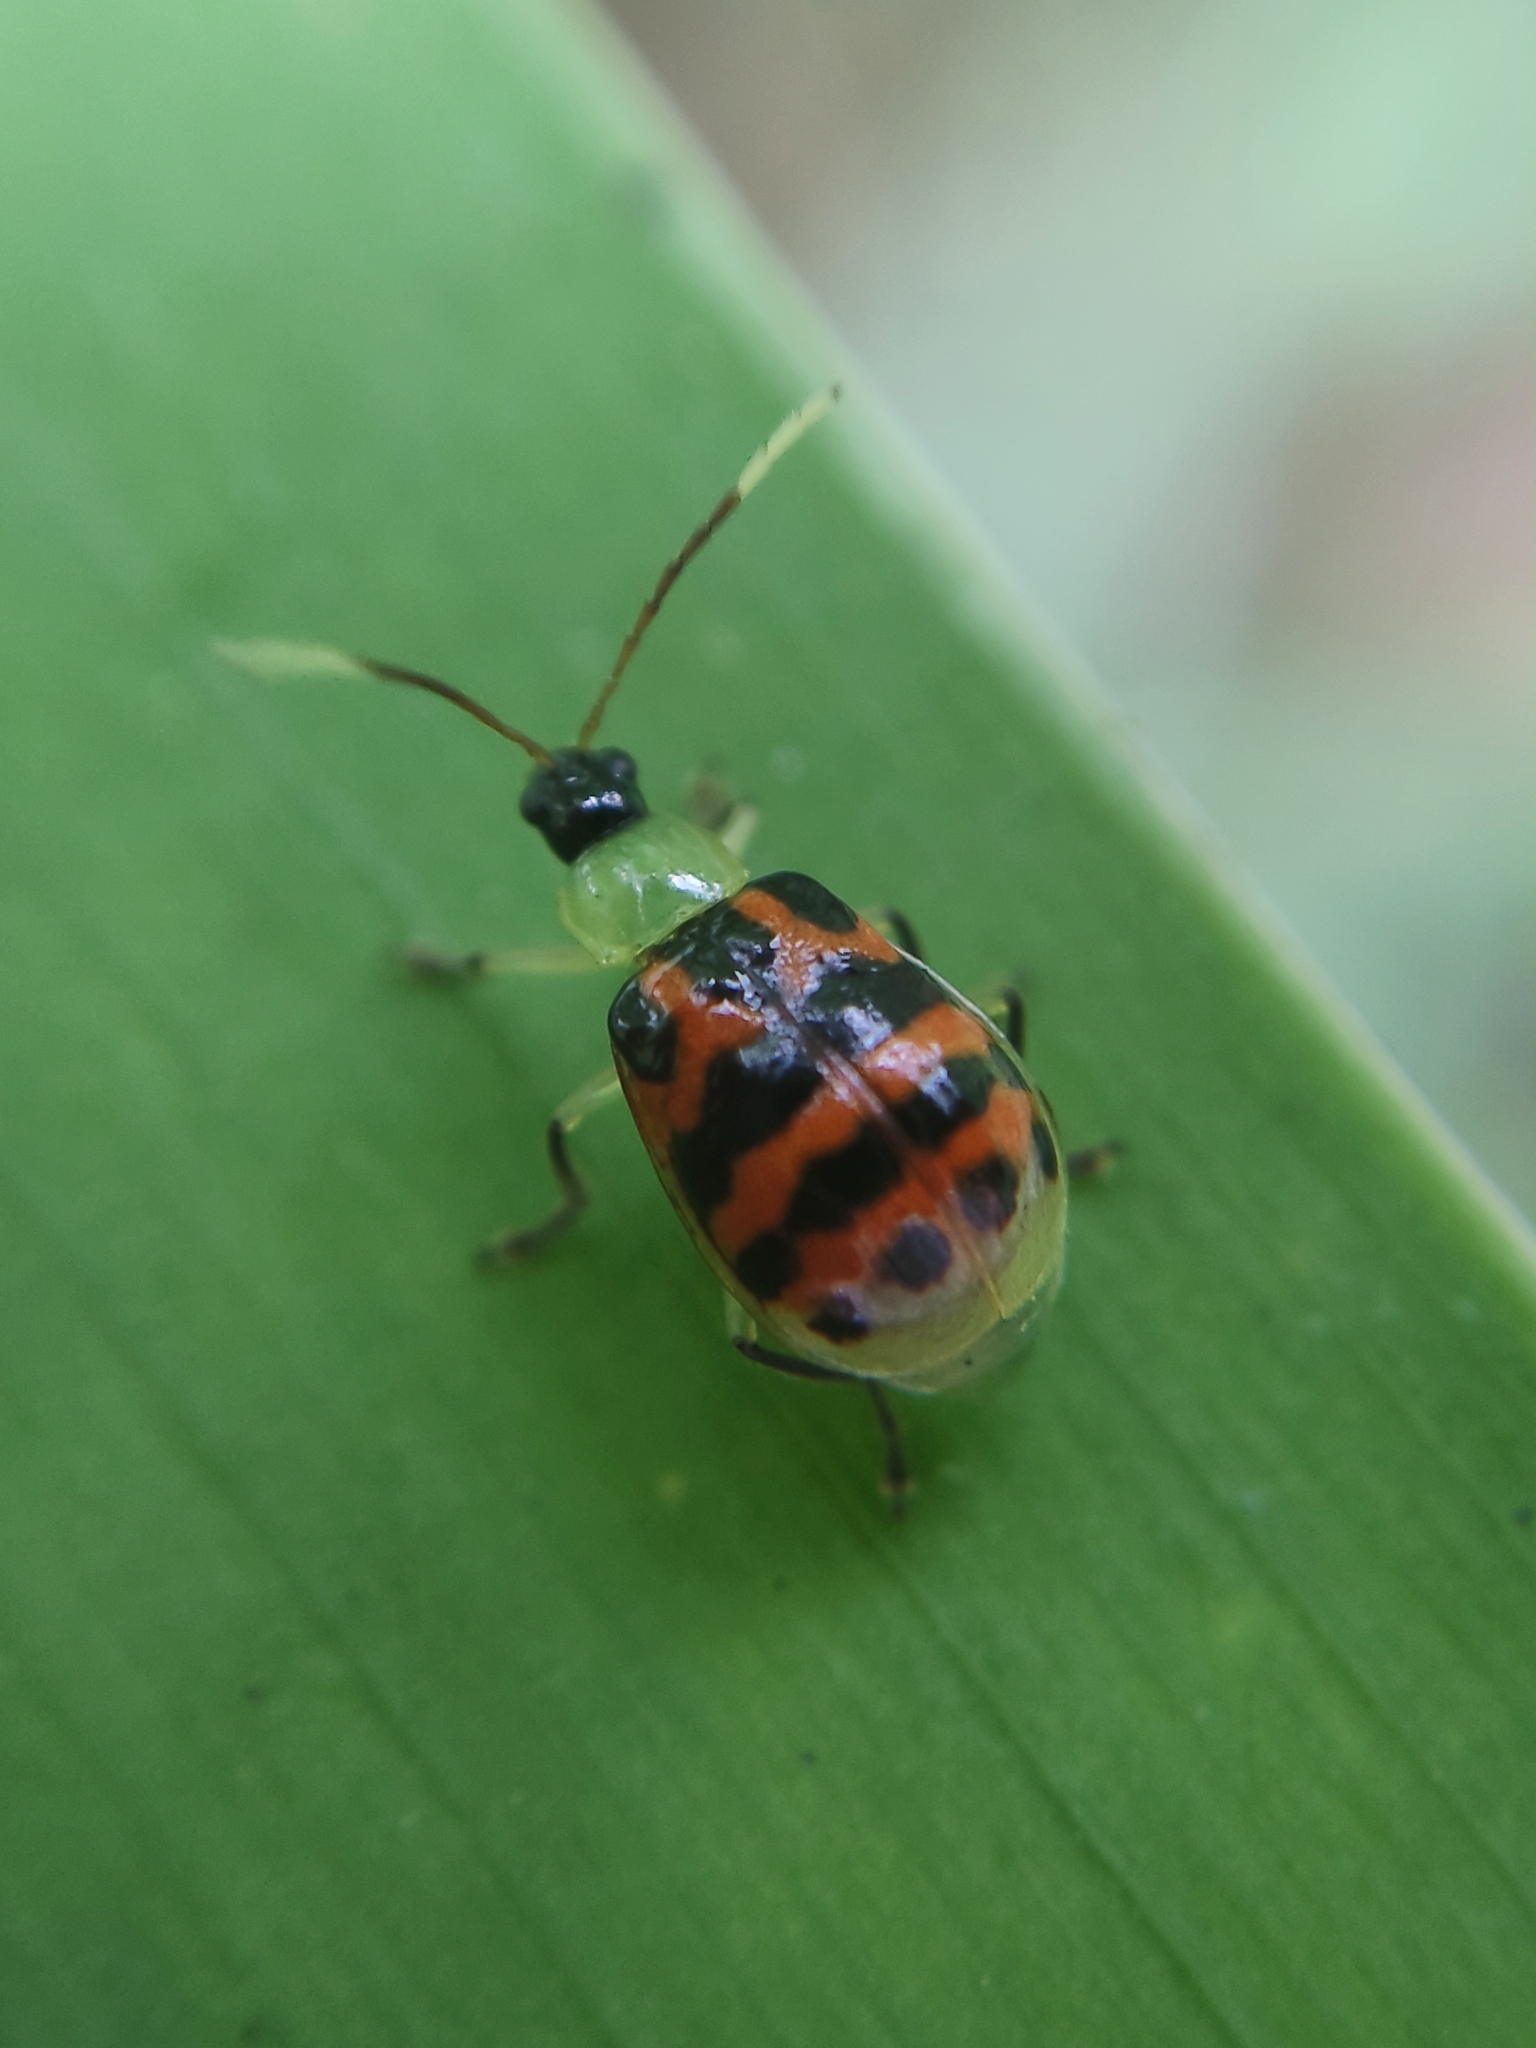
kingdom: Animalia
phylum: Arthropoda
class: Insecta
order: Coleoptera
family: Chrysomelidae
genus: Diabrotica
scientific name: Diabrotica limitata
